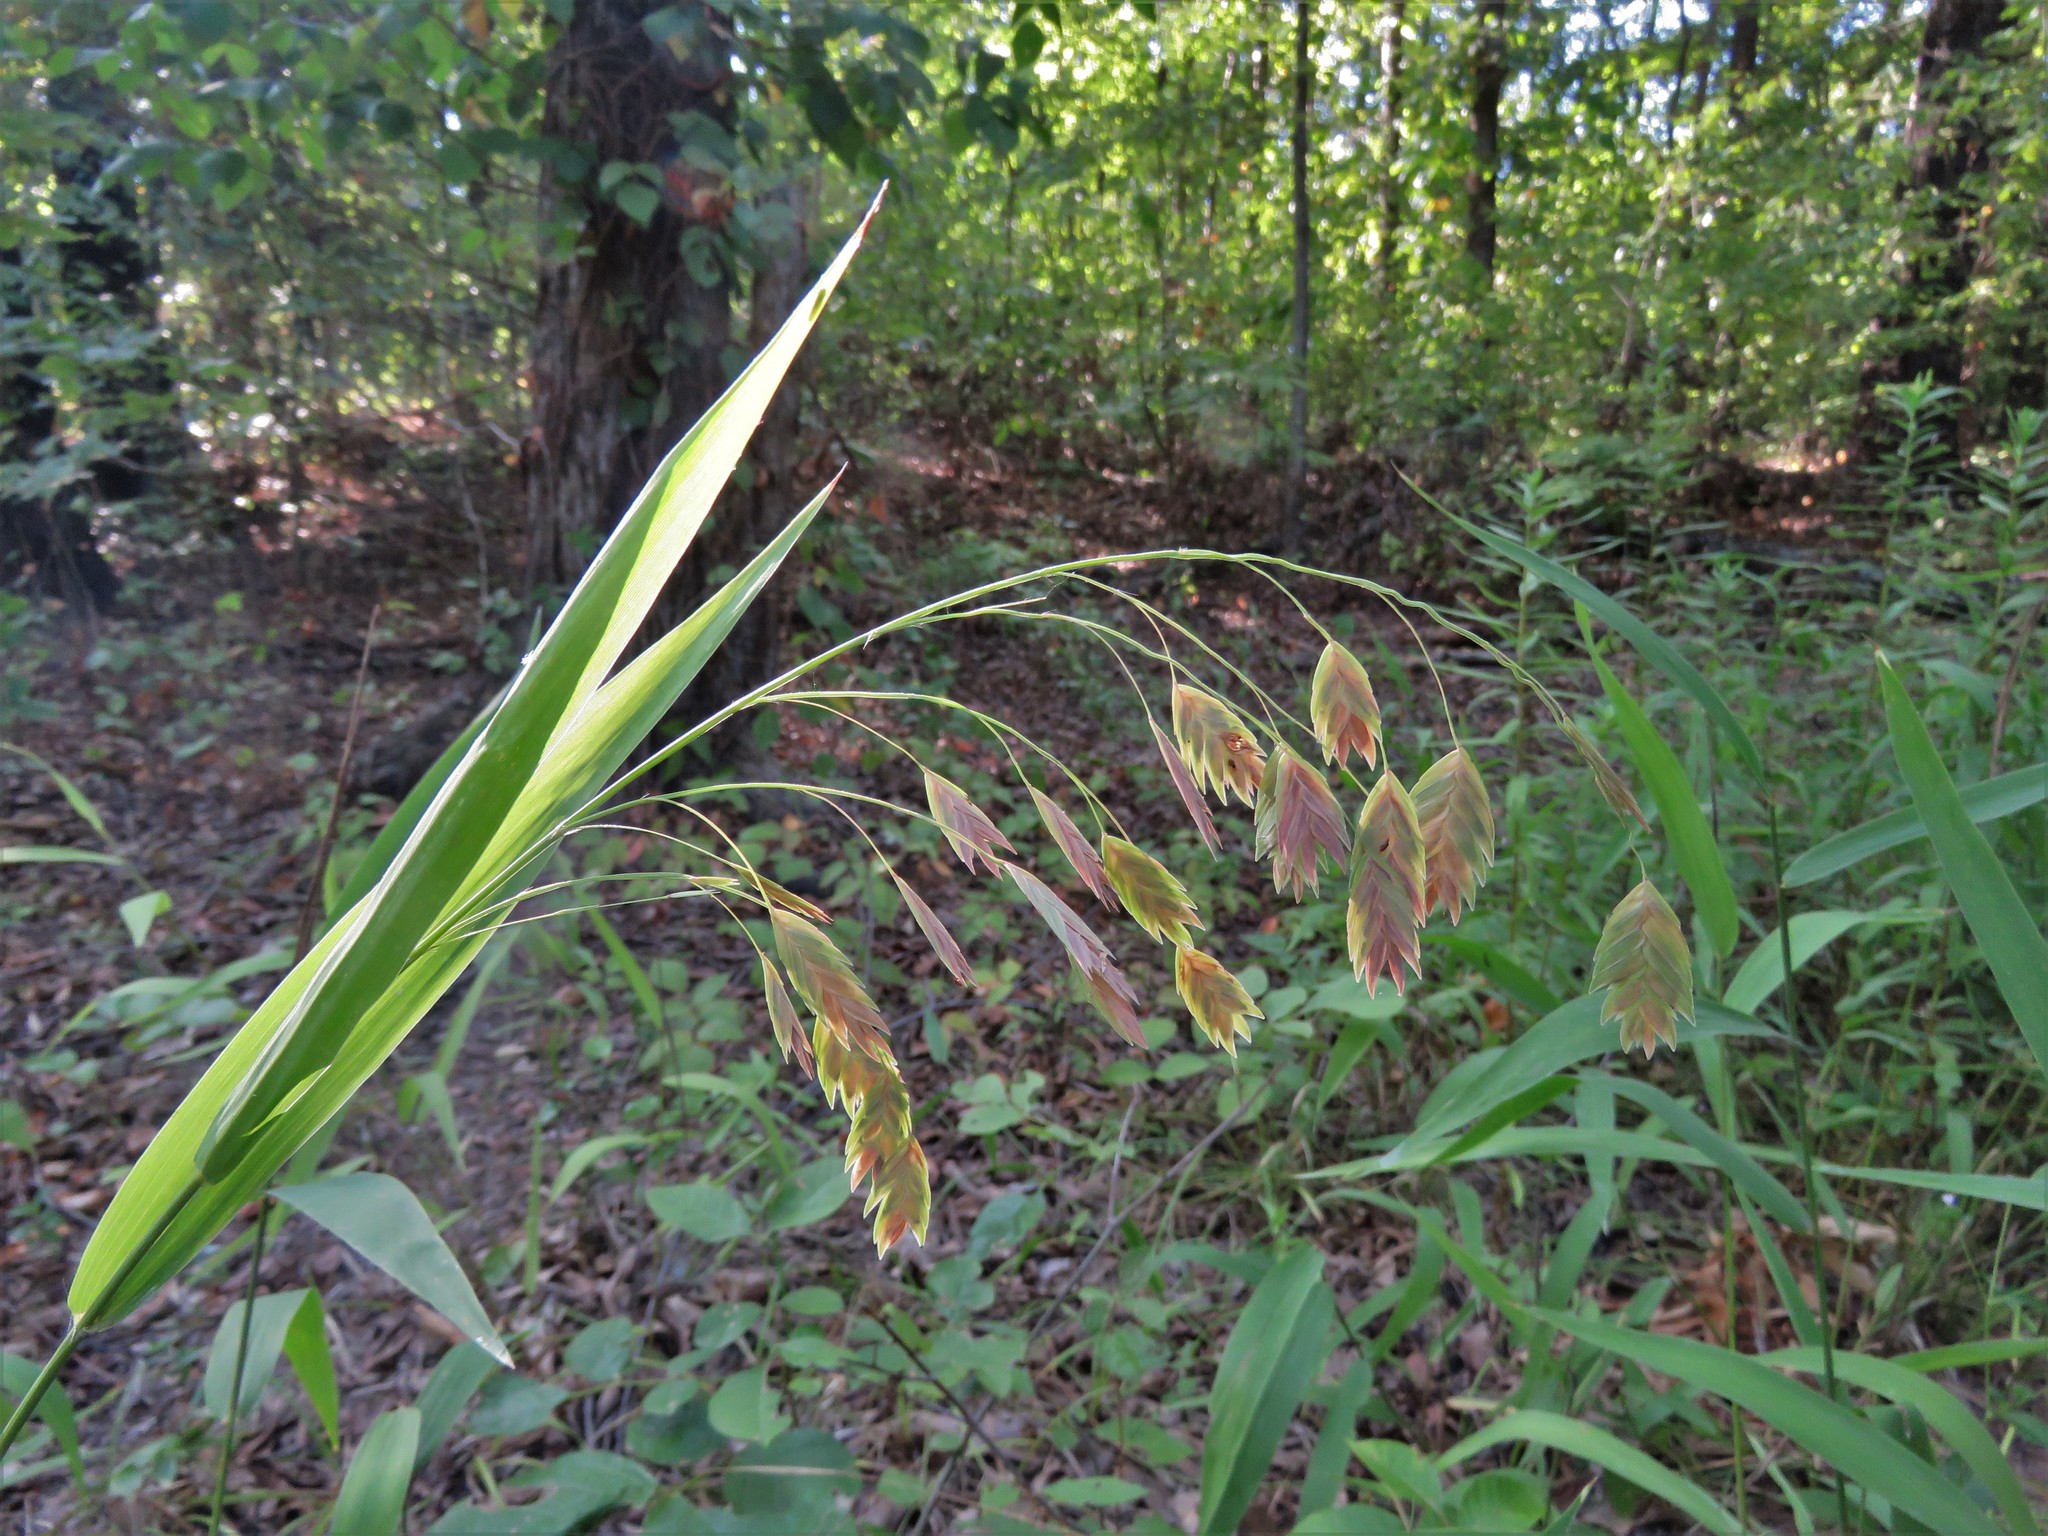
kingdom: Plantae
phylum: Tracheophyta
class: Liliopsida
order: Poales
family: Poaceae
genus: Chasmanthium
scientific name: Chasmanthium latifolium
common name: Broad-leaved chasmanthium
